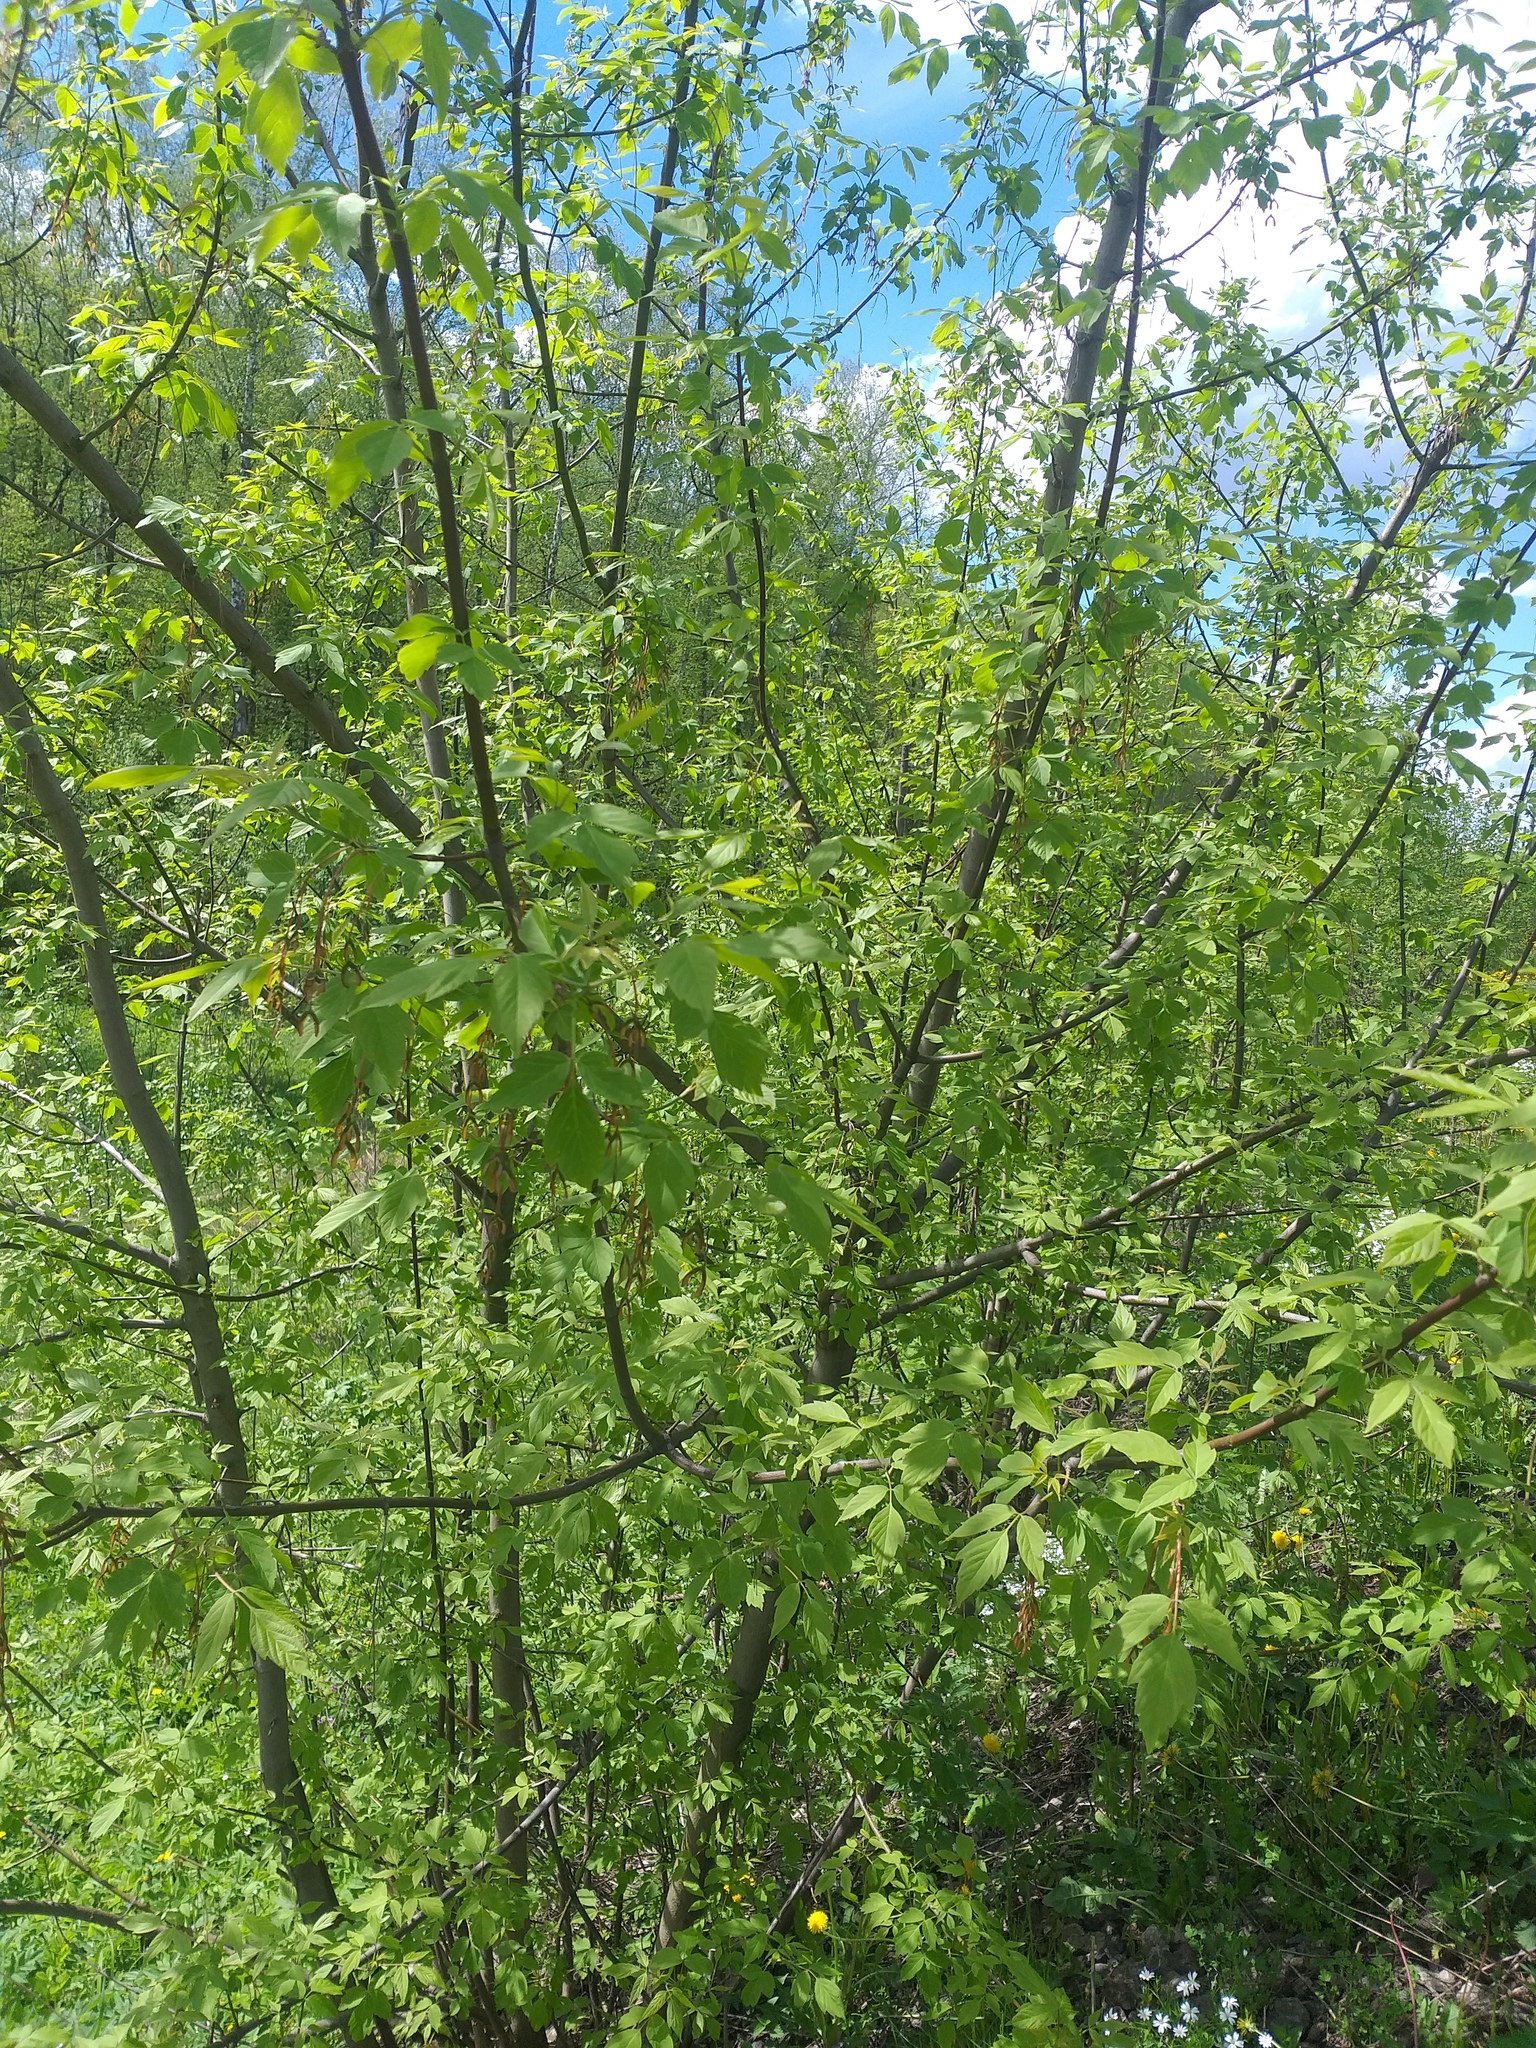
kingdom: Plantae
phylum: Tracheophyta
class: Magnoliopsida
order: Sapindales
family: Sapindaceae
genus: Acer
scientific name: Acer negundo
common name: Ashleaf maple
